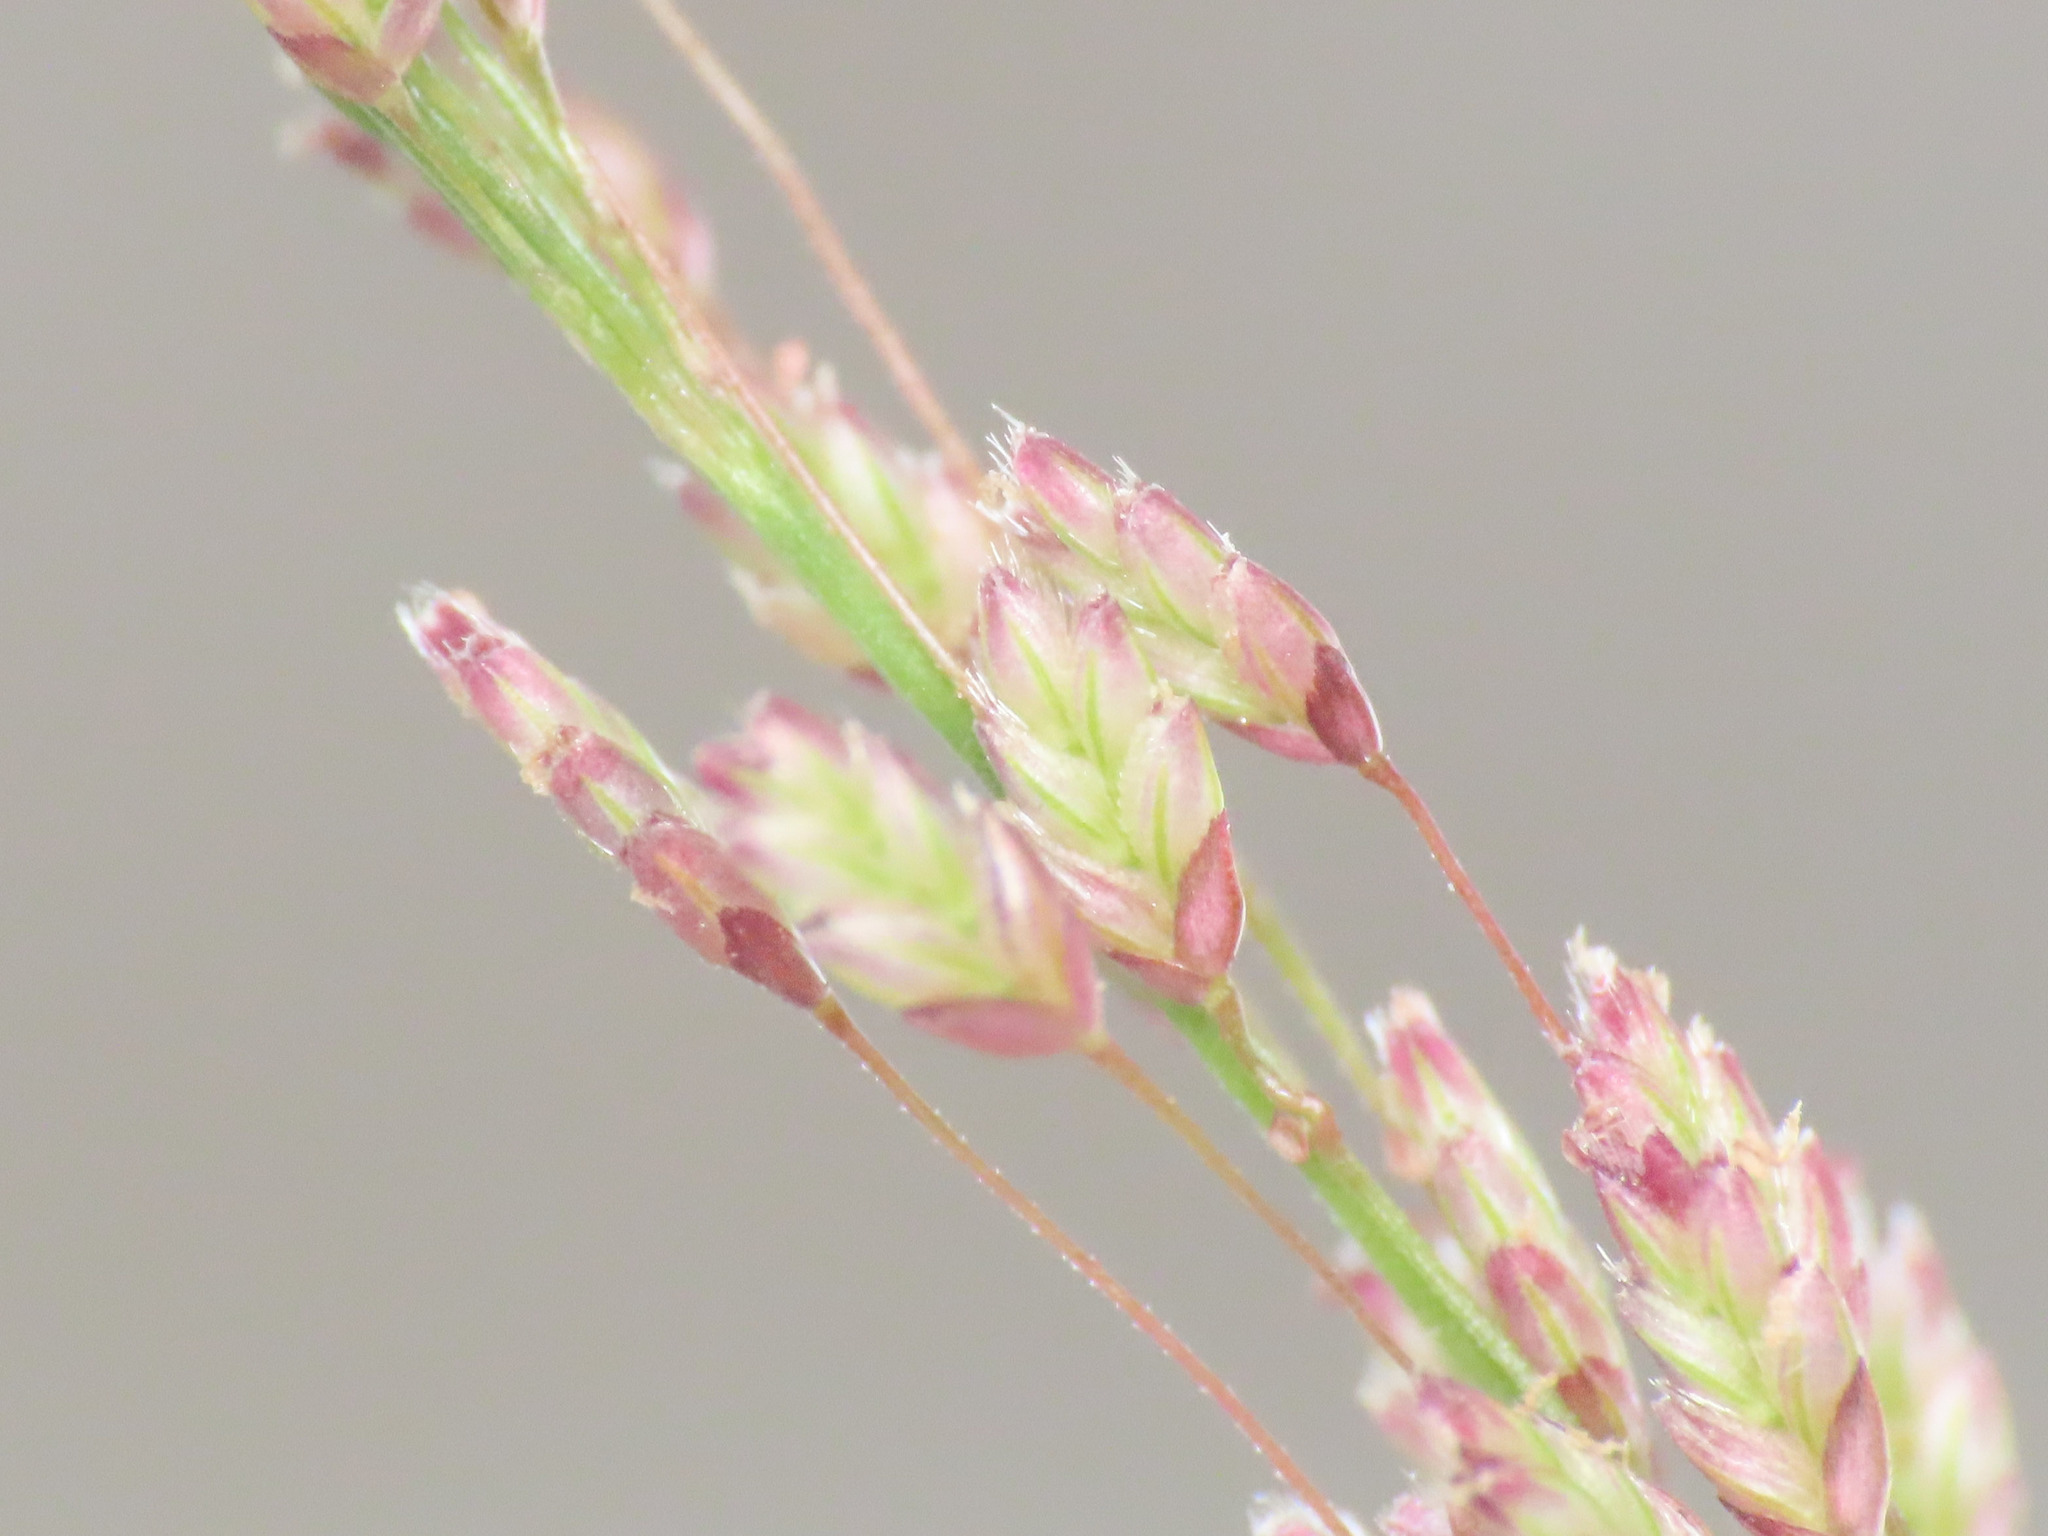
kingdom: Plantae
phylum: Tracheophyta
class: Liliopsida
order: Poales
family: Poaceae
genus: Eragrostis
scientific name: Eragrostis tenella
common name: Japanese lovegrass
